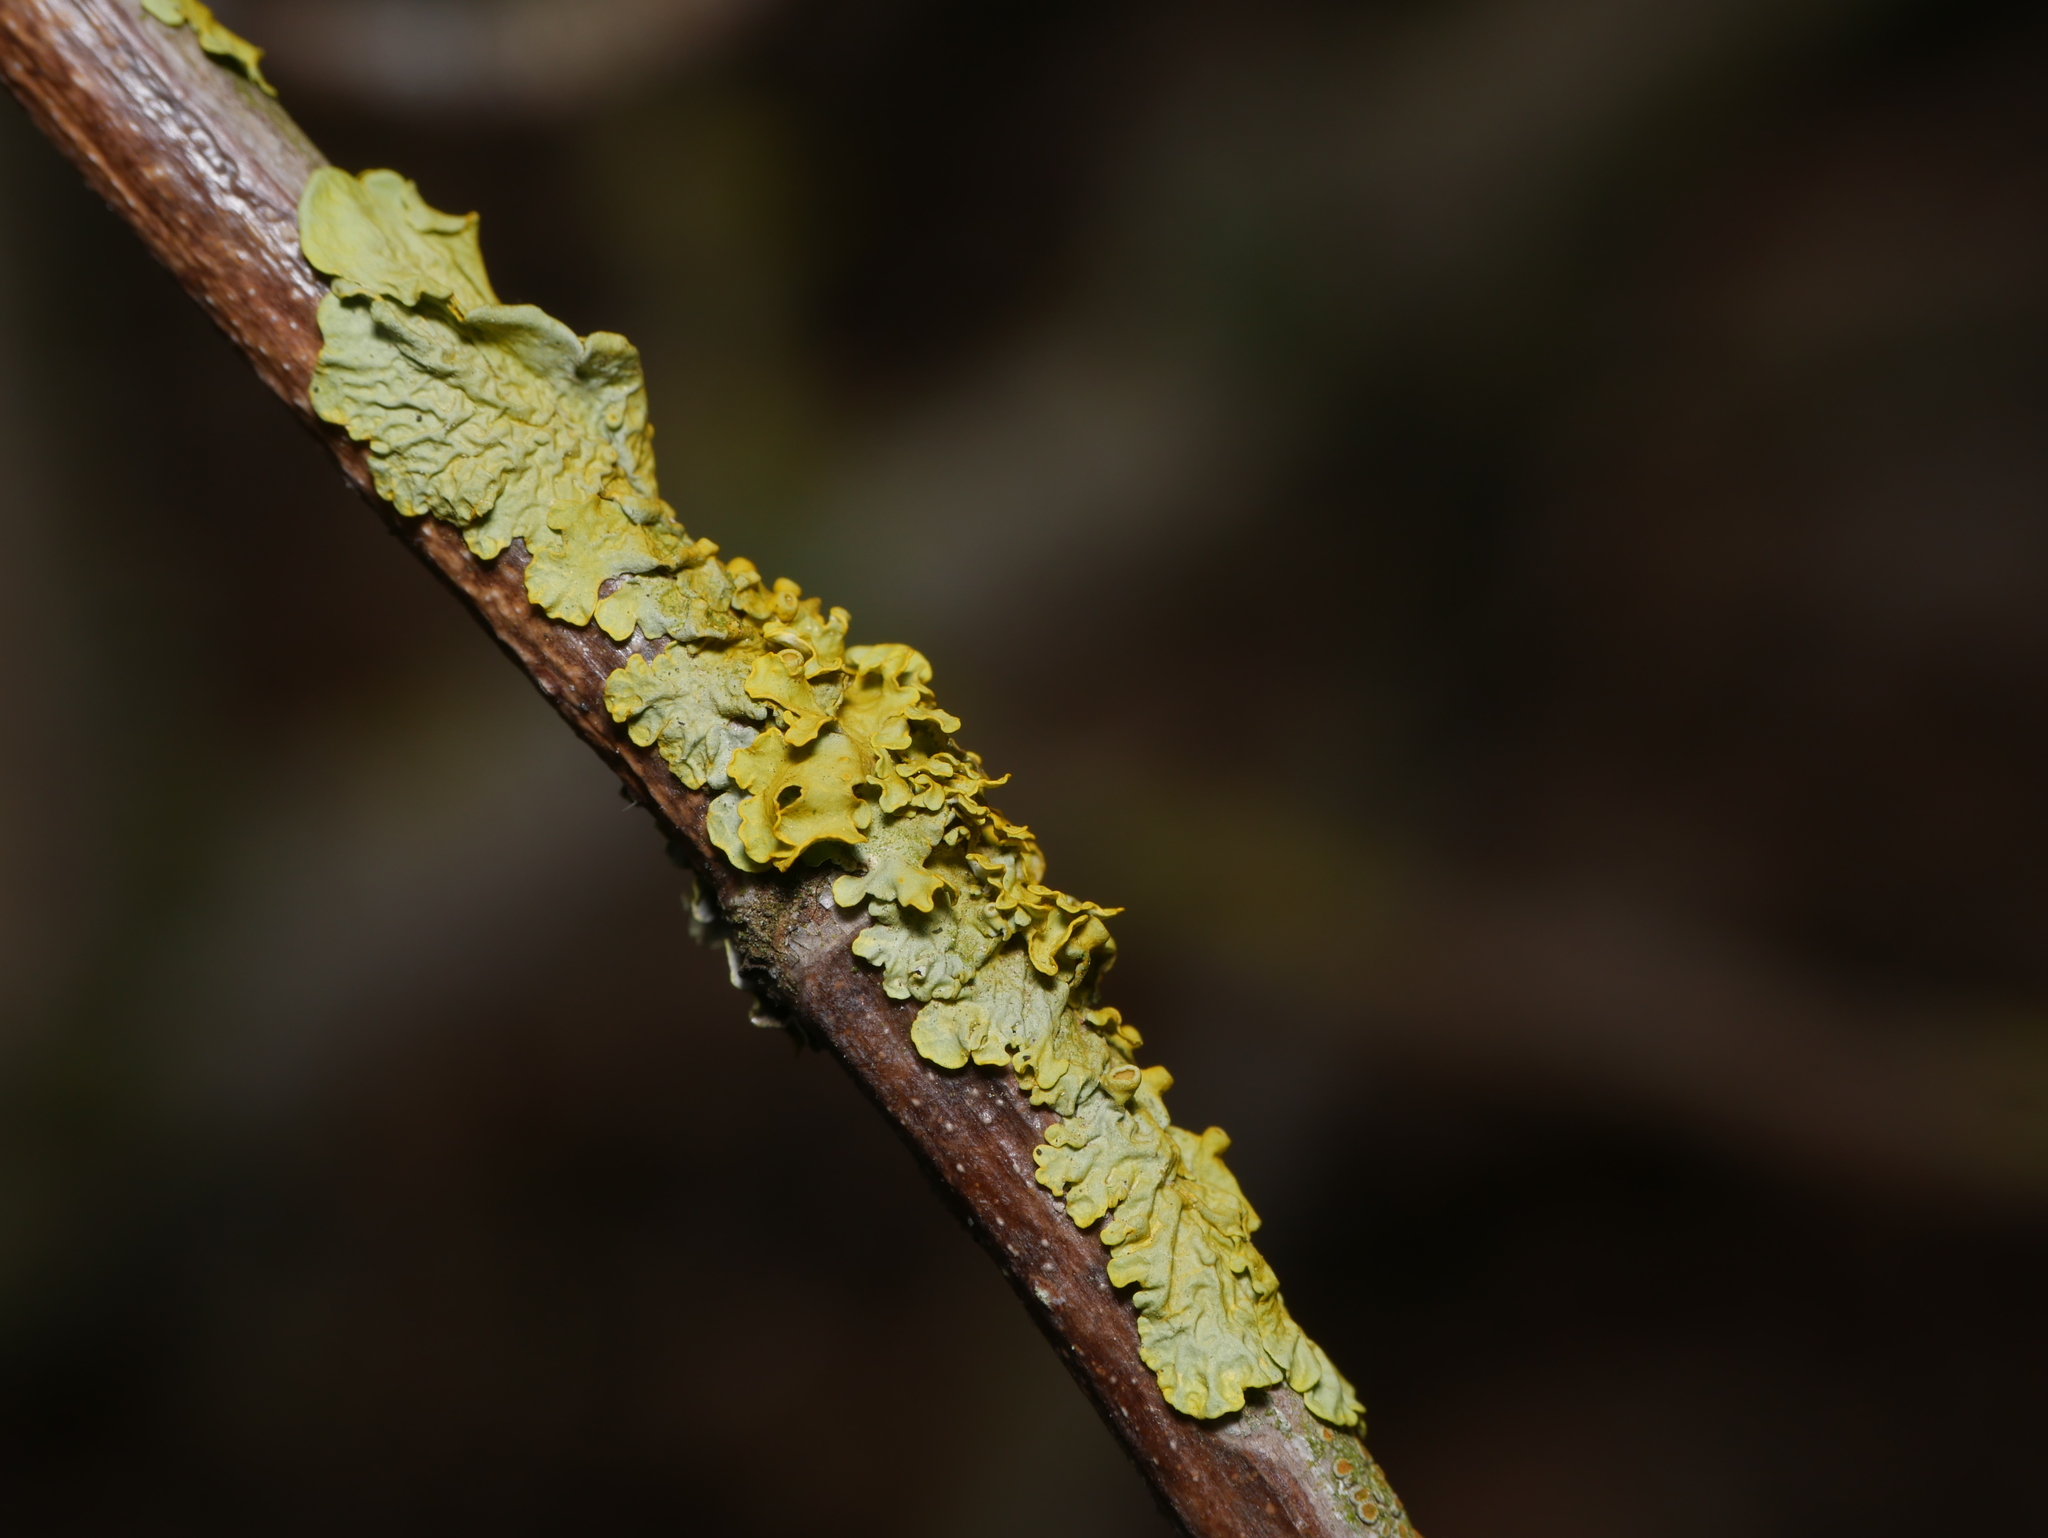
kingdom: Fungi
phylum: Ascomycota
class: Lecanoromycetes
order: Teloschistales
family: Teloschistaceae
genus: Xanthoria
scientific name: Xanthoria parietina
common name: Common orange lichen
